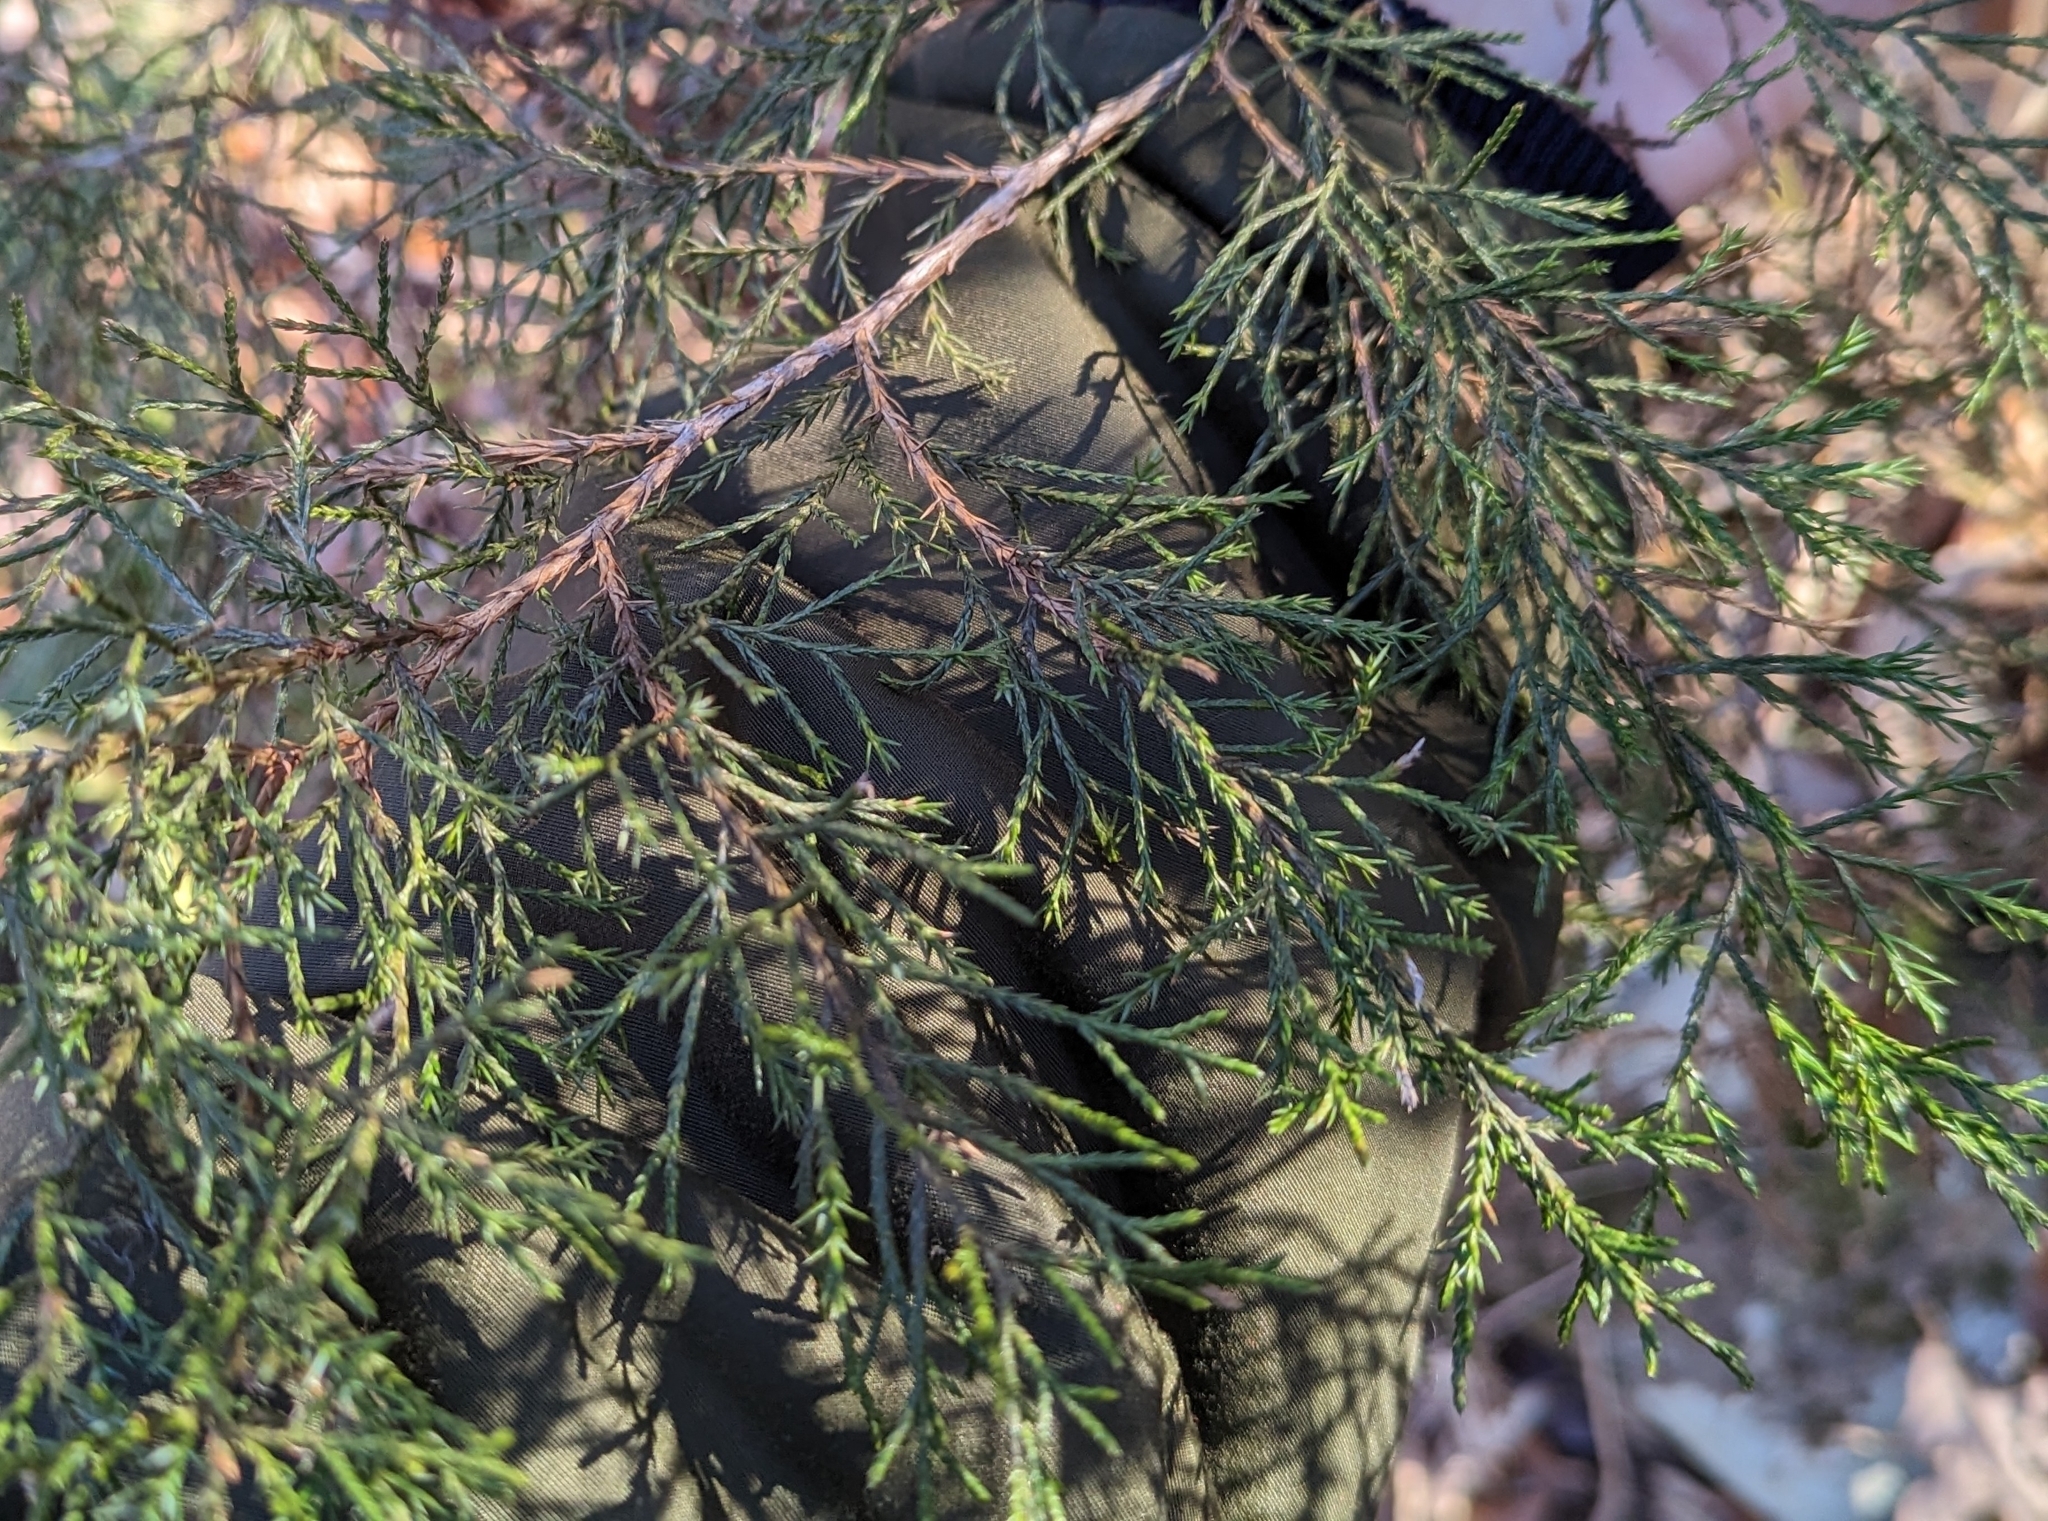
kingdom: Plantae
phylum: Tracheophyta
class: Pinopsida
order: Pinales
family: Cupressaceae
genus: Juniperus
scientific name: Juniperus virginiana
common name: Red juniper
